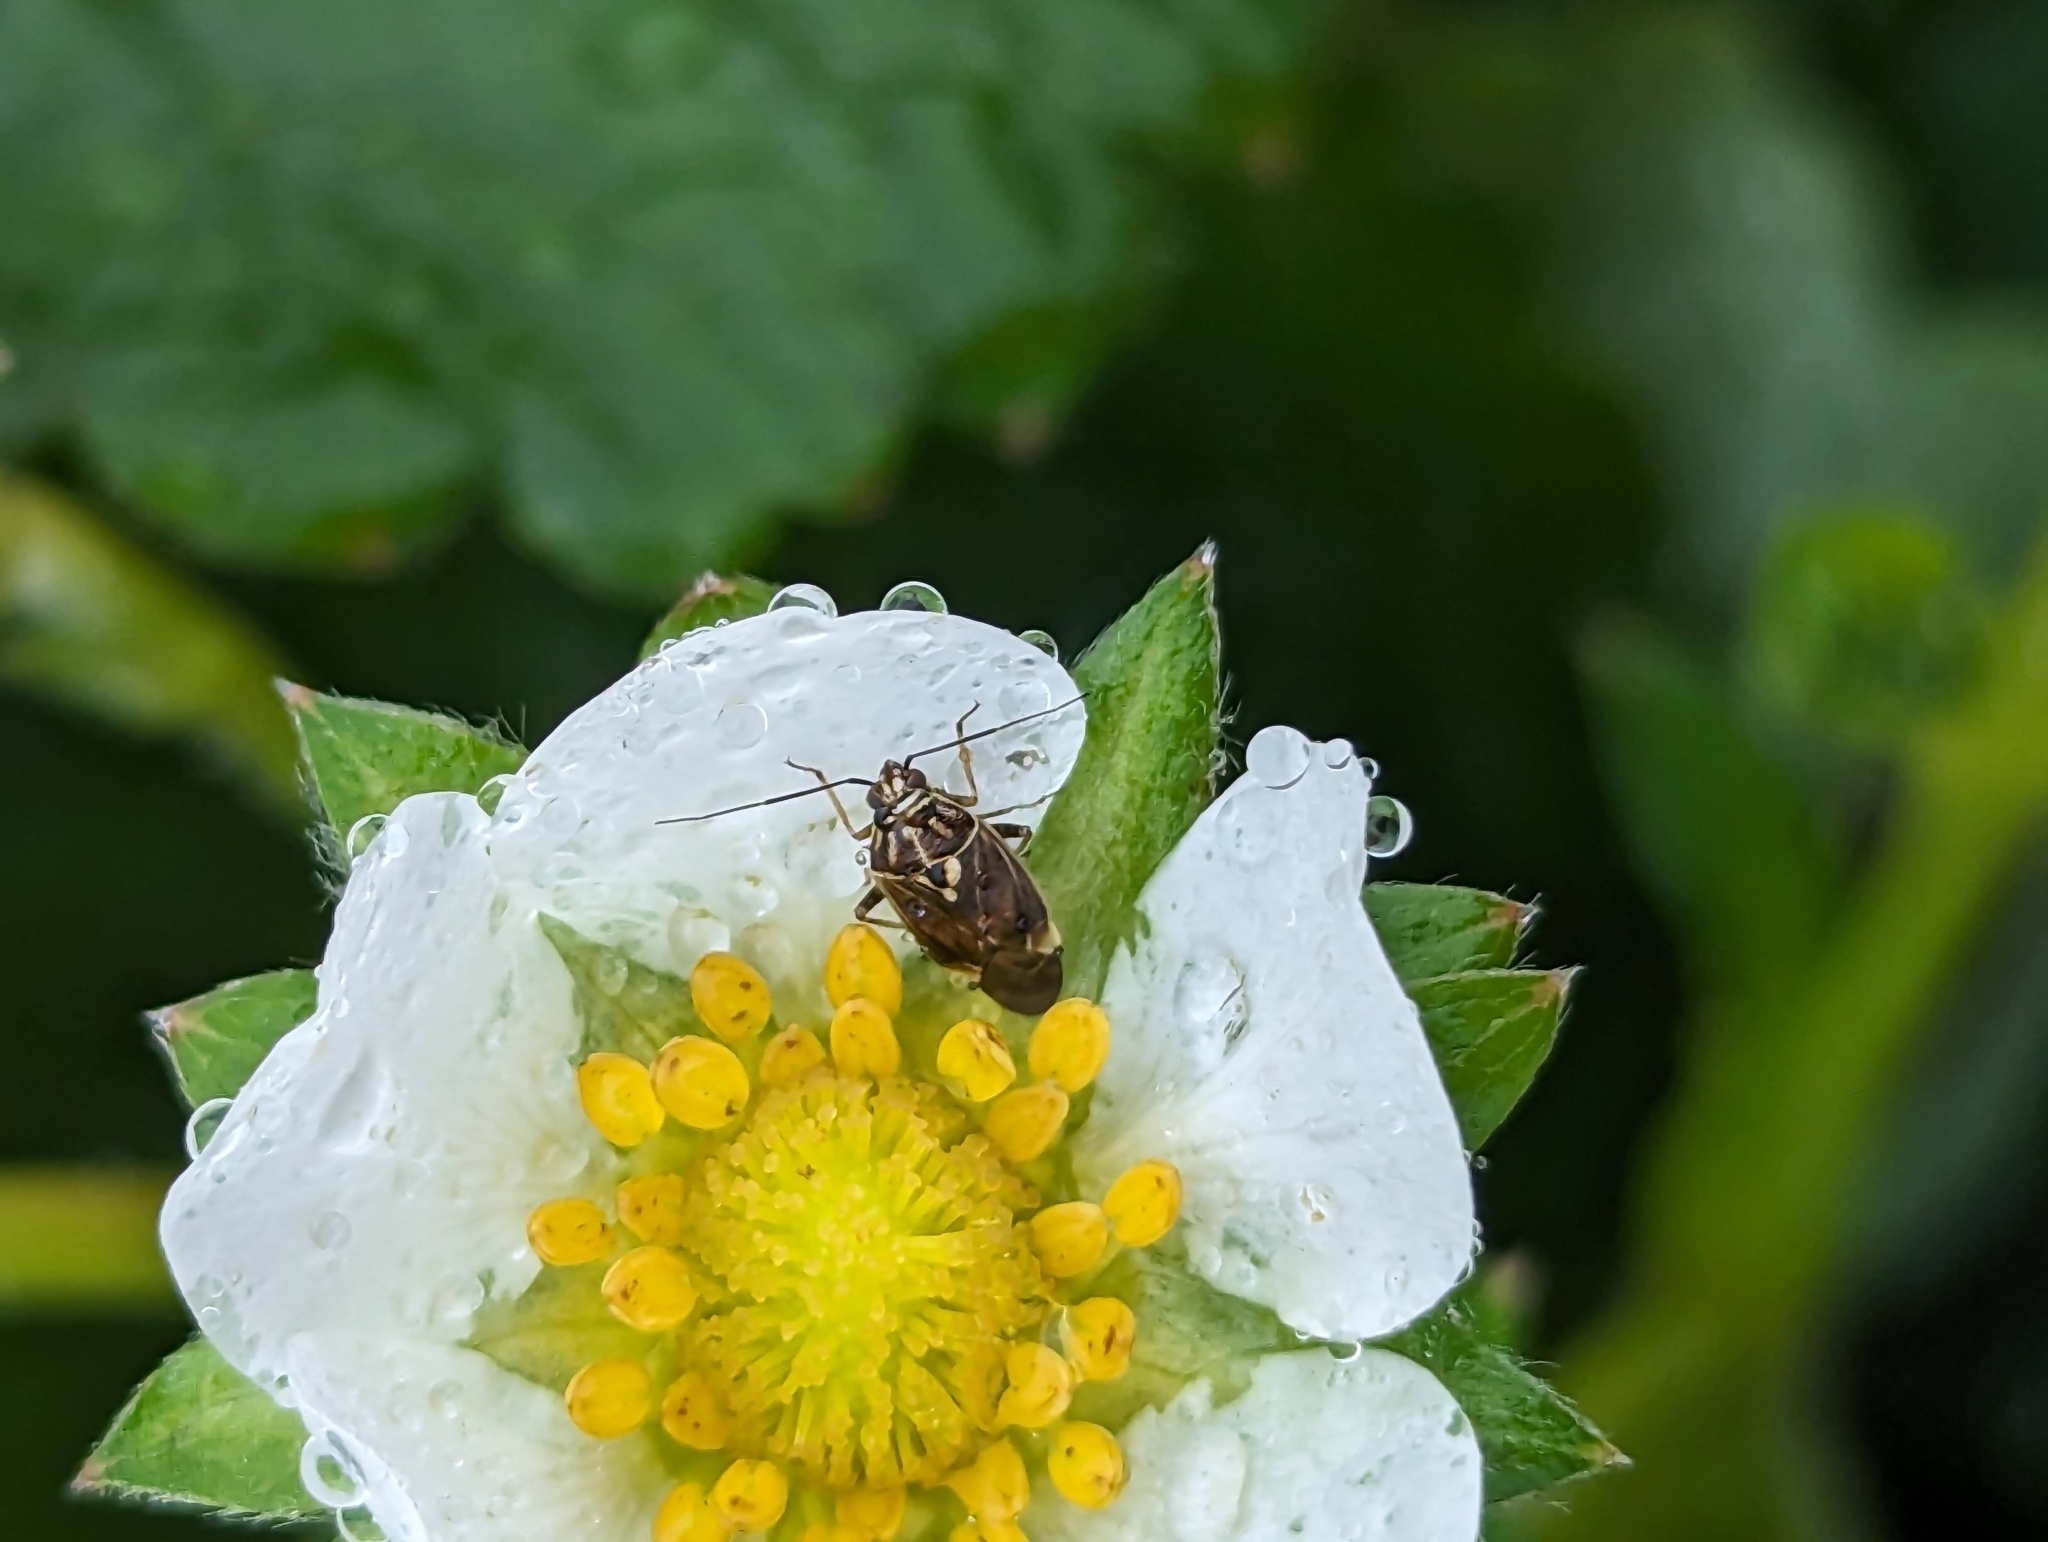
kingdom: Animalia
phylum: Arthropoda
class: Insecta
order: Hemiptera
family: Miridae
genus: Lygus
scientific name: Lygus lineolaris
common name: North american tarnished plant bug
